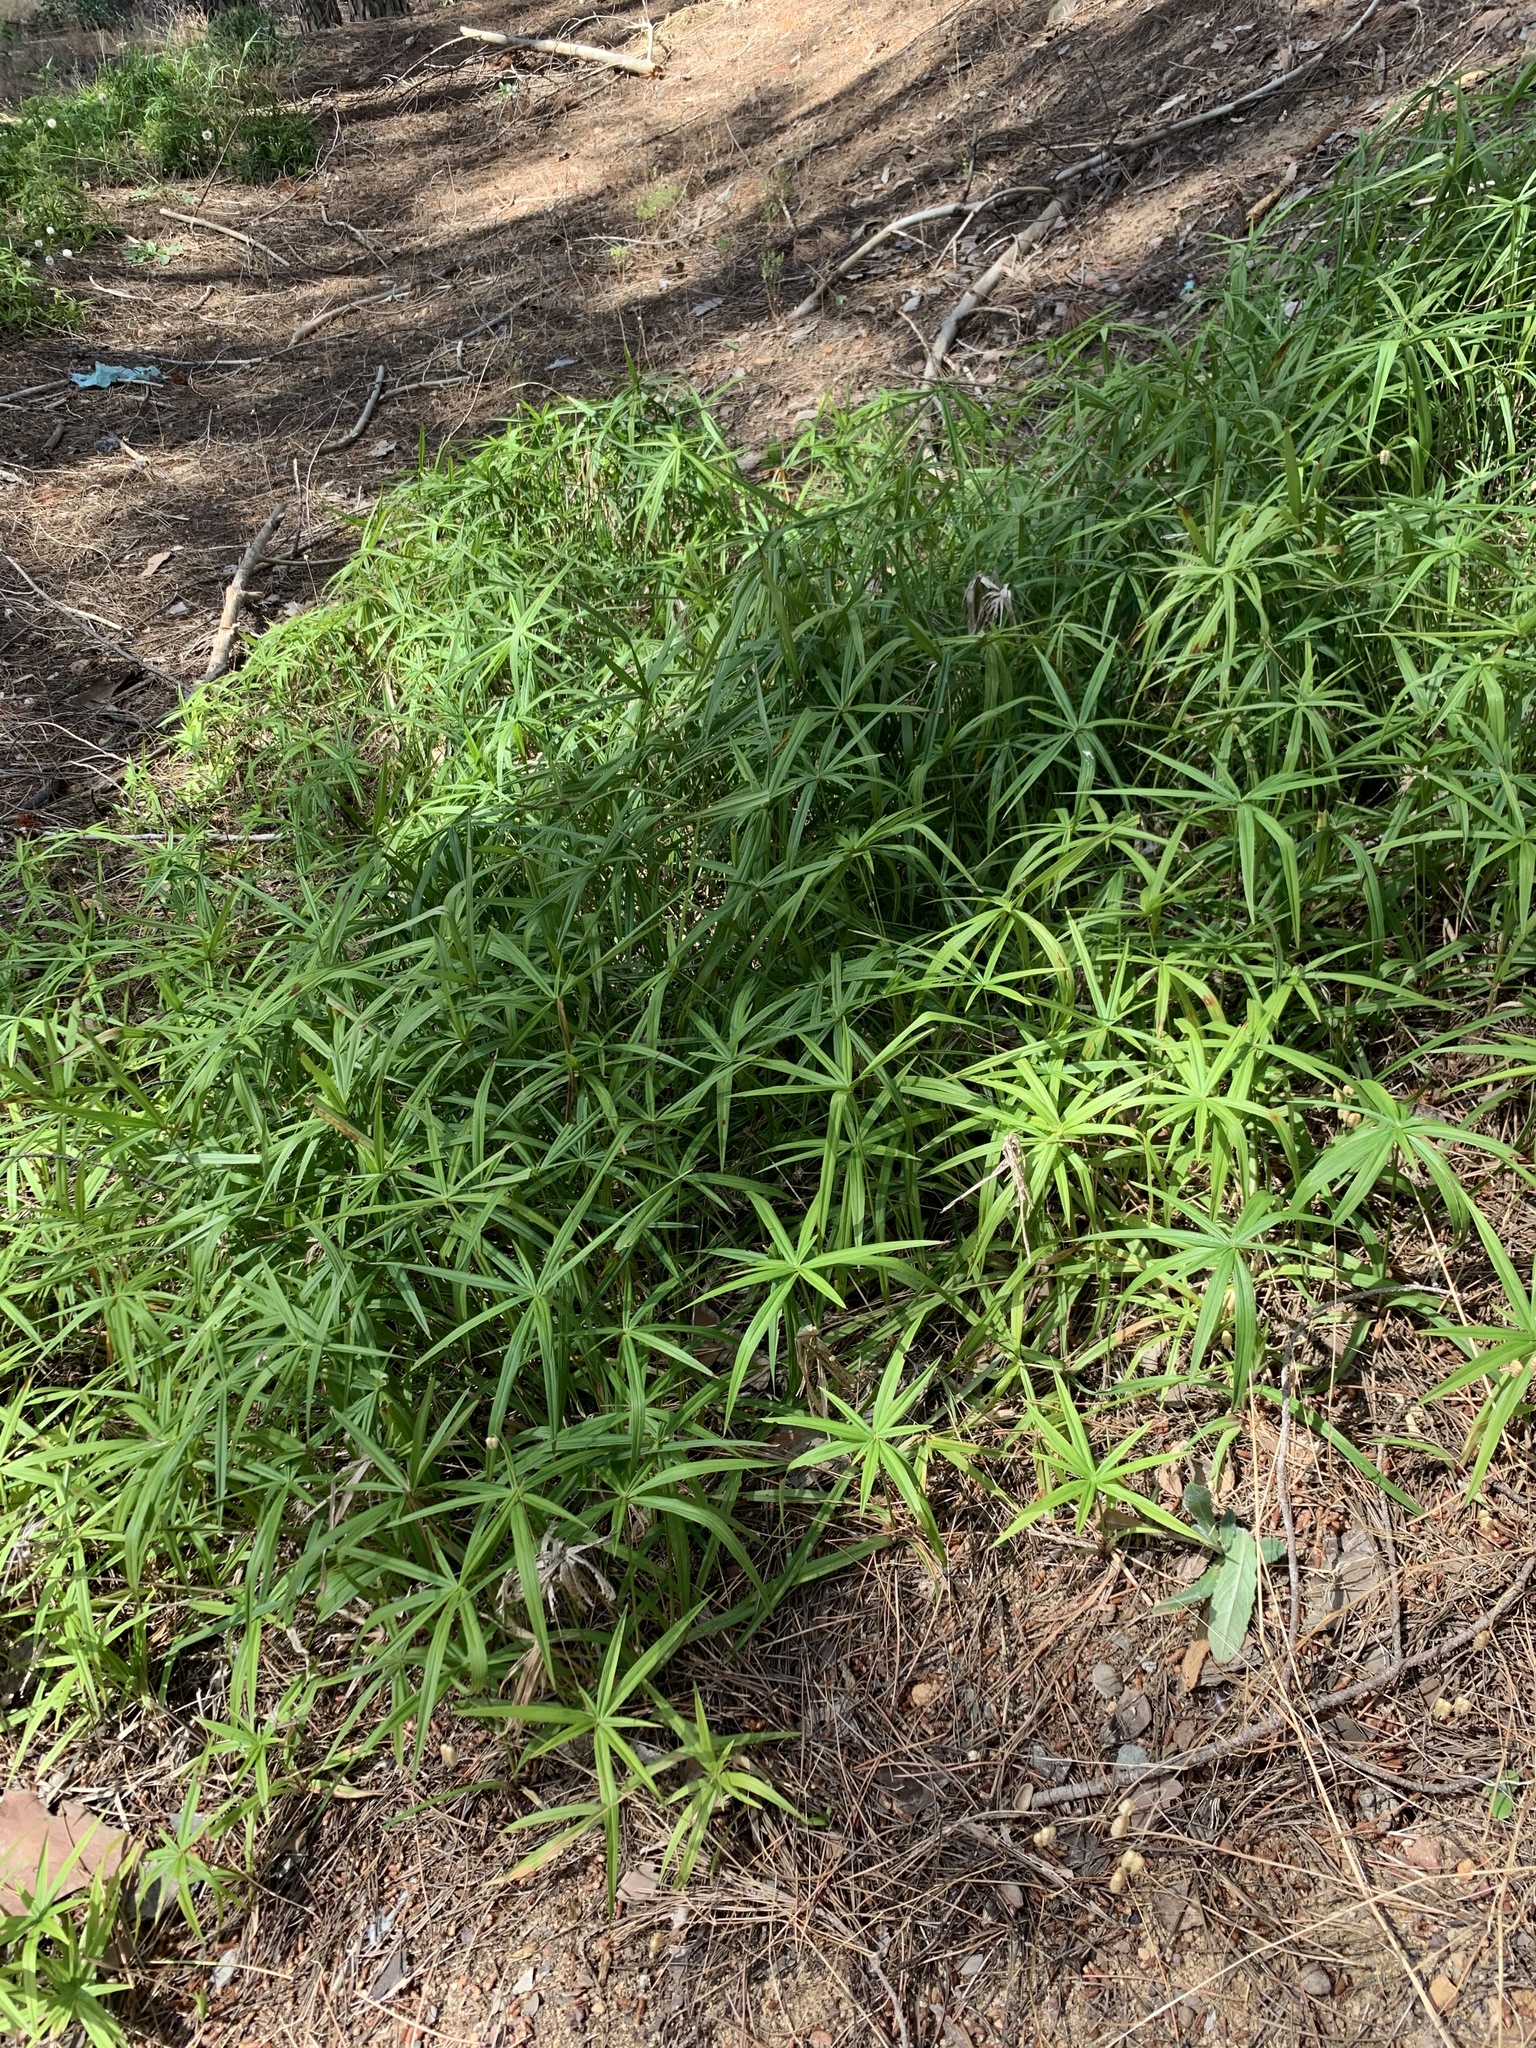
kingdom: Plantae
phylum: Tracheophyta
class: Liliopsida
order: Poales
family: Cyperaceae
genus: Cyperus
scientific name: Cyperus albostriatus
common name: Dwarf umbrella-grass
